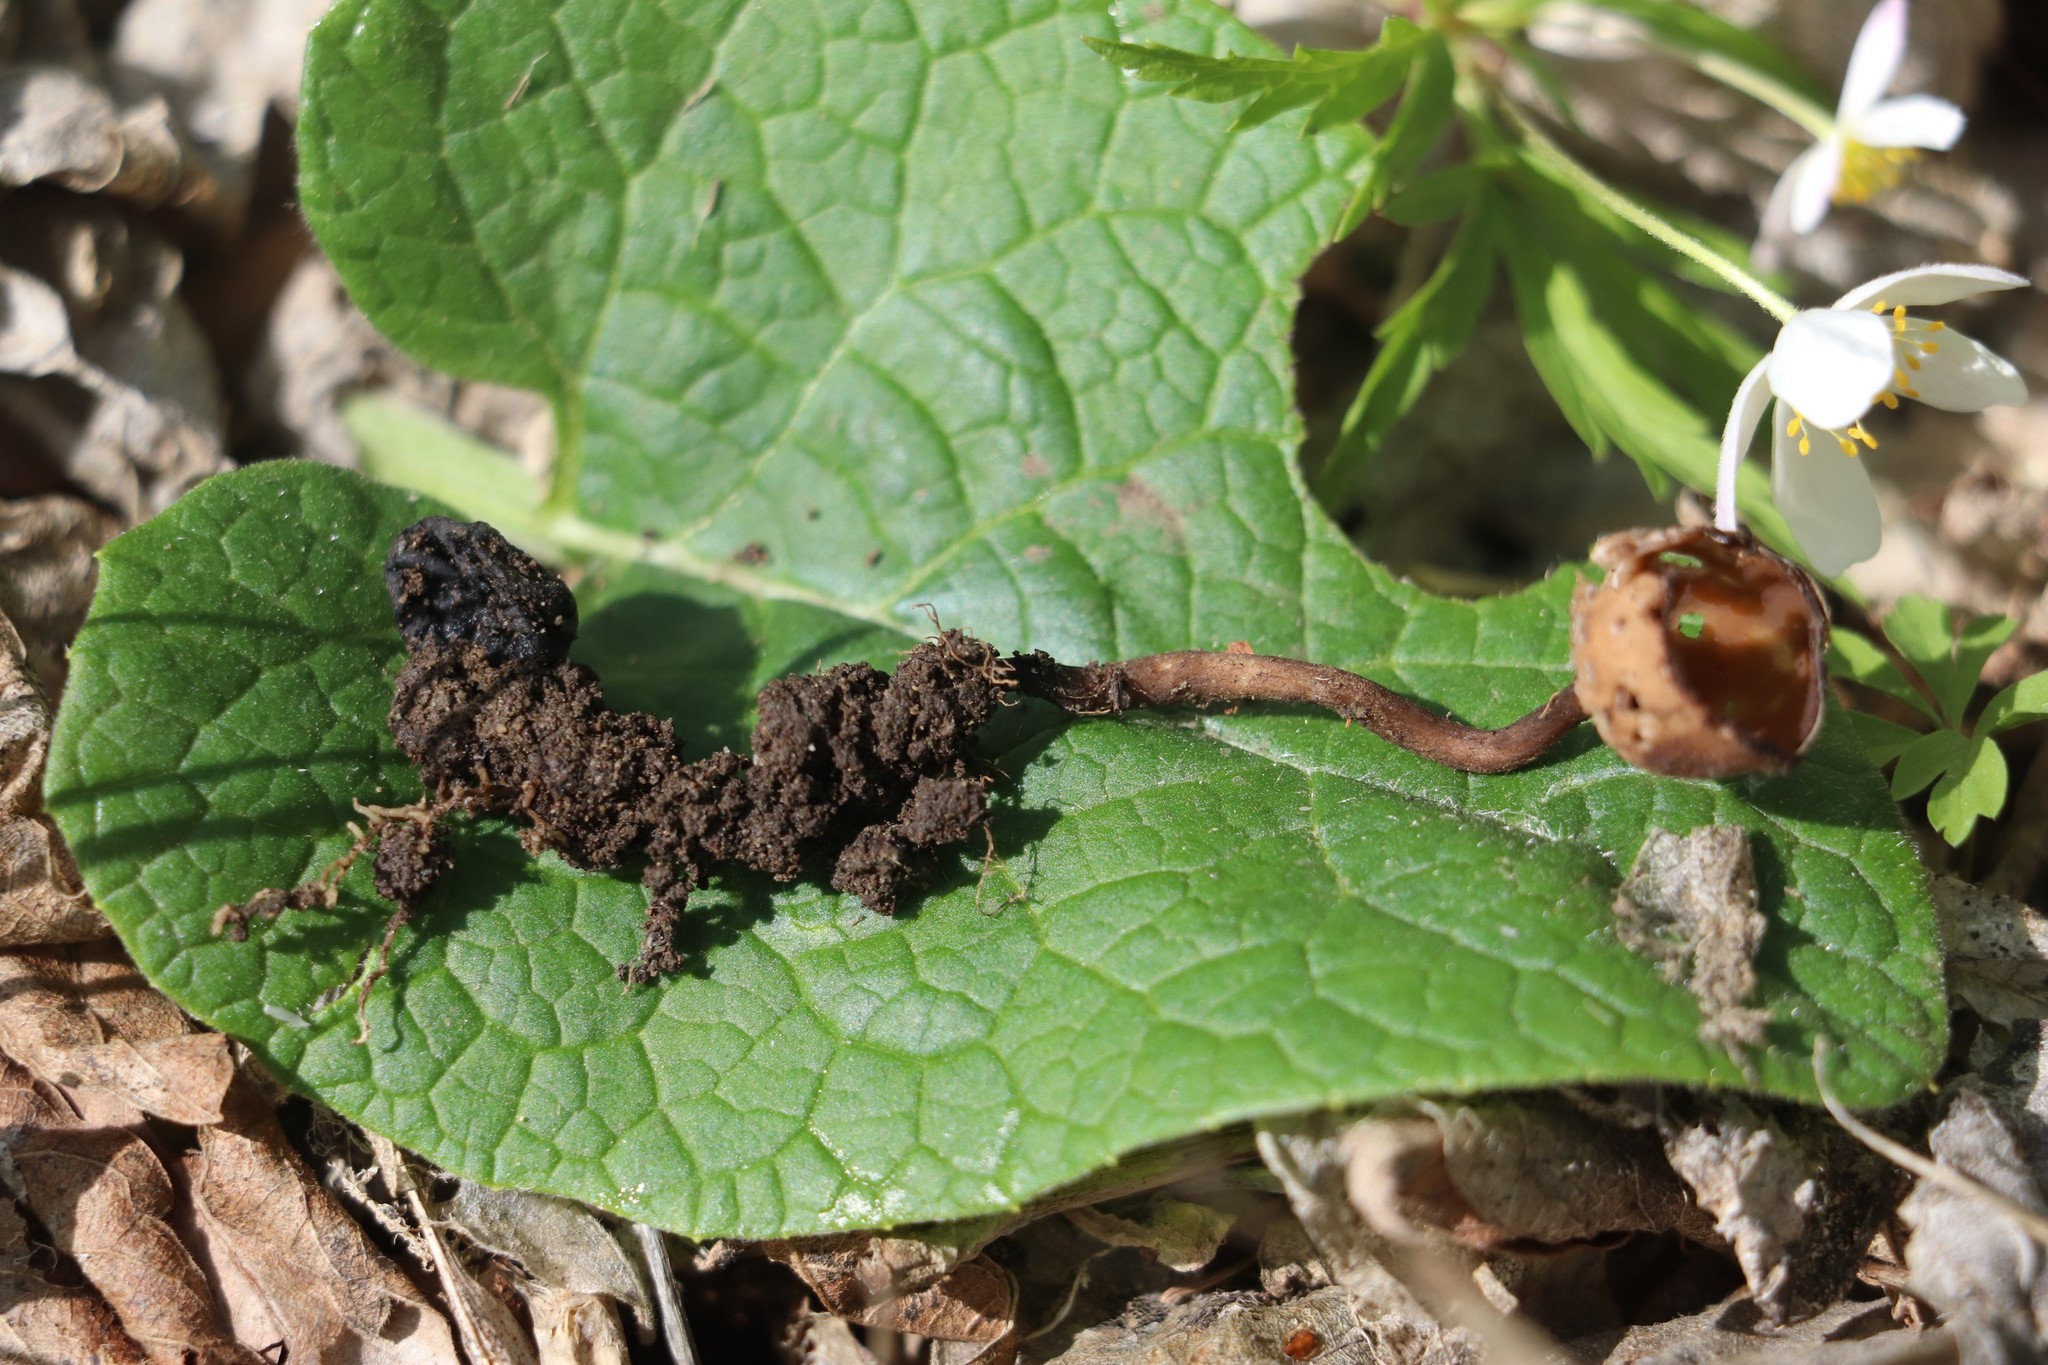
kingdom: Fungi
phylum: Ascomycota
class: Leotiomycetes
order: Helotiales
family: Sclerotiniaceae
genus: Dumontinia
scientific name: Dumontinia tuberosa
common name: Anemone cup
